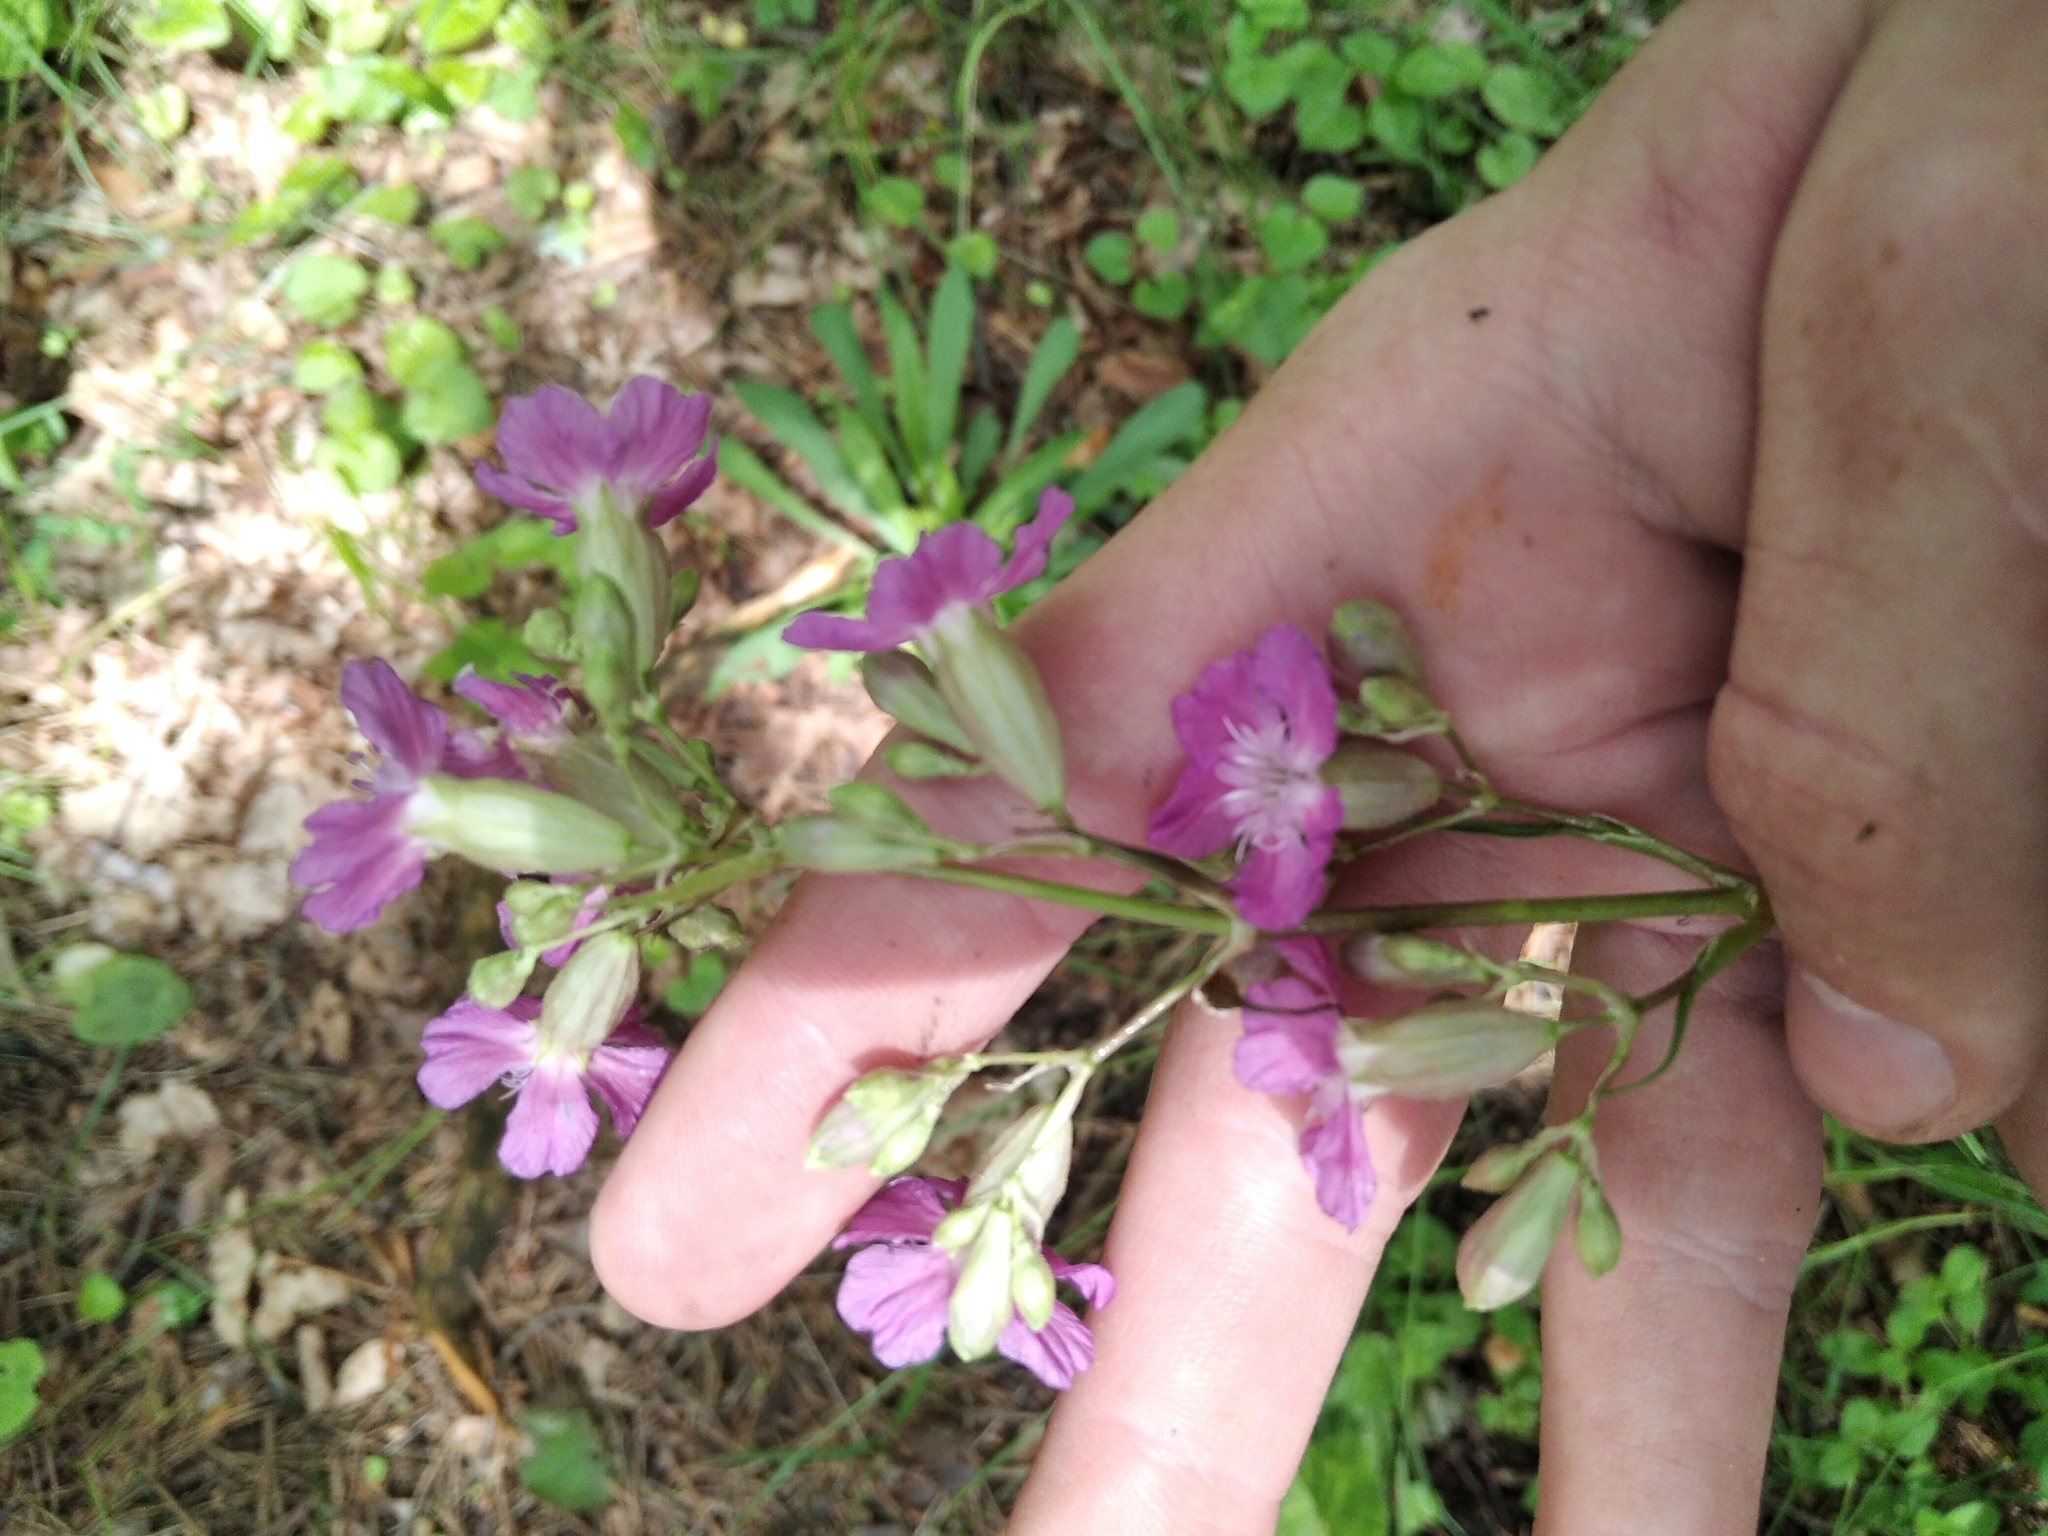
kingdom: Plantae
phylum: Tracheophyta
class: Magnoliopsida
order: Caryophyllales
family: Caryophyllaceae
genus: Viscaria
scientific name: Viscaria vulgaris
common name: Clammy campion
